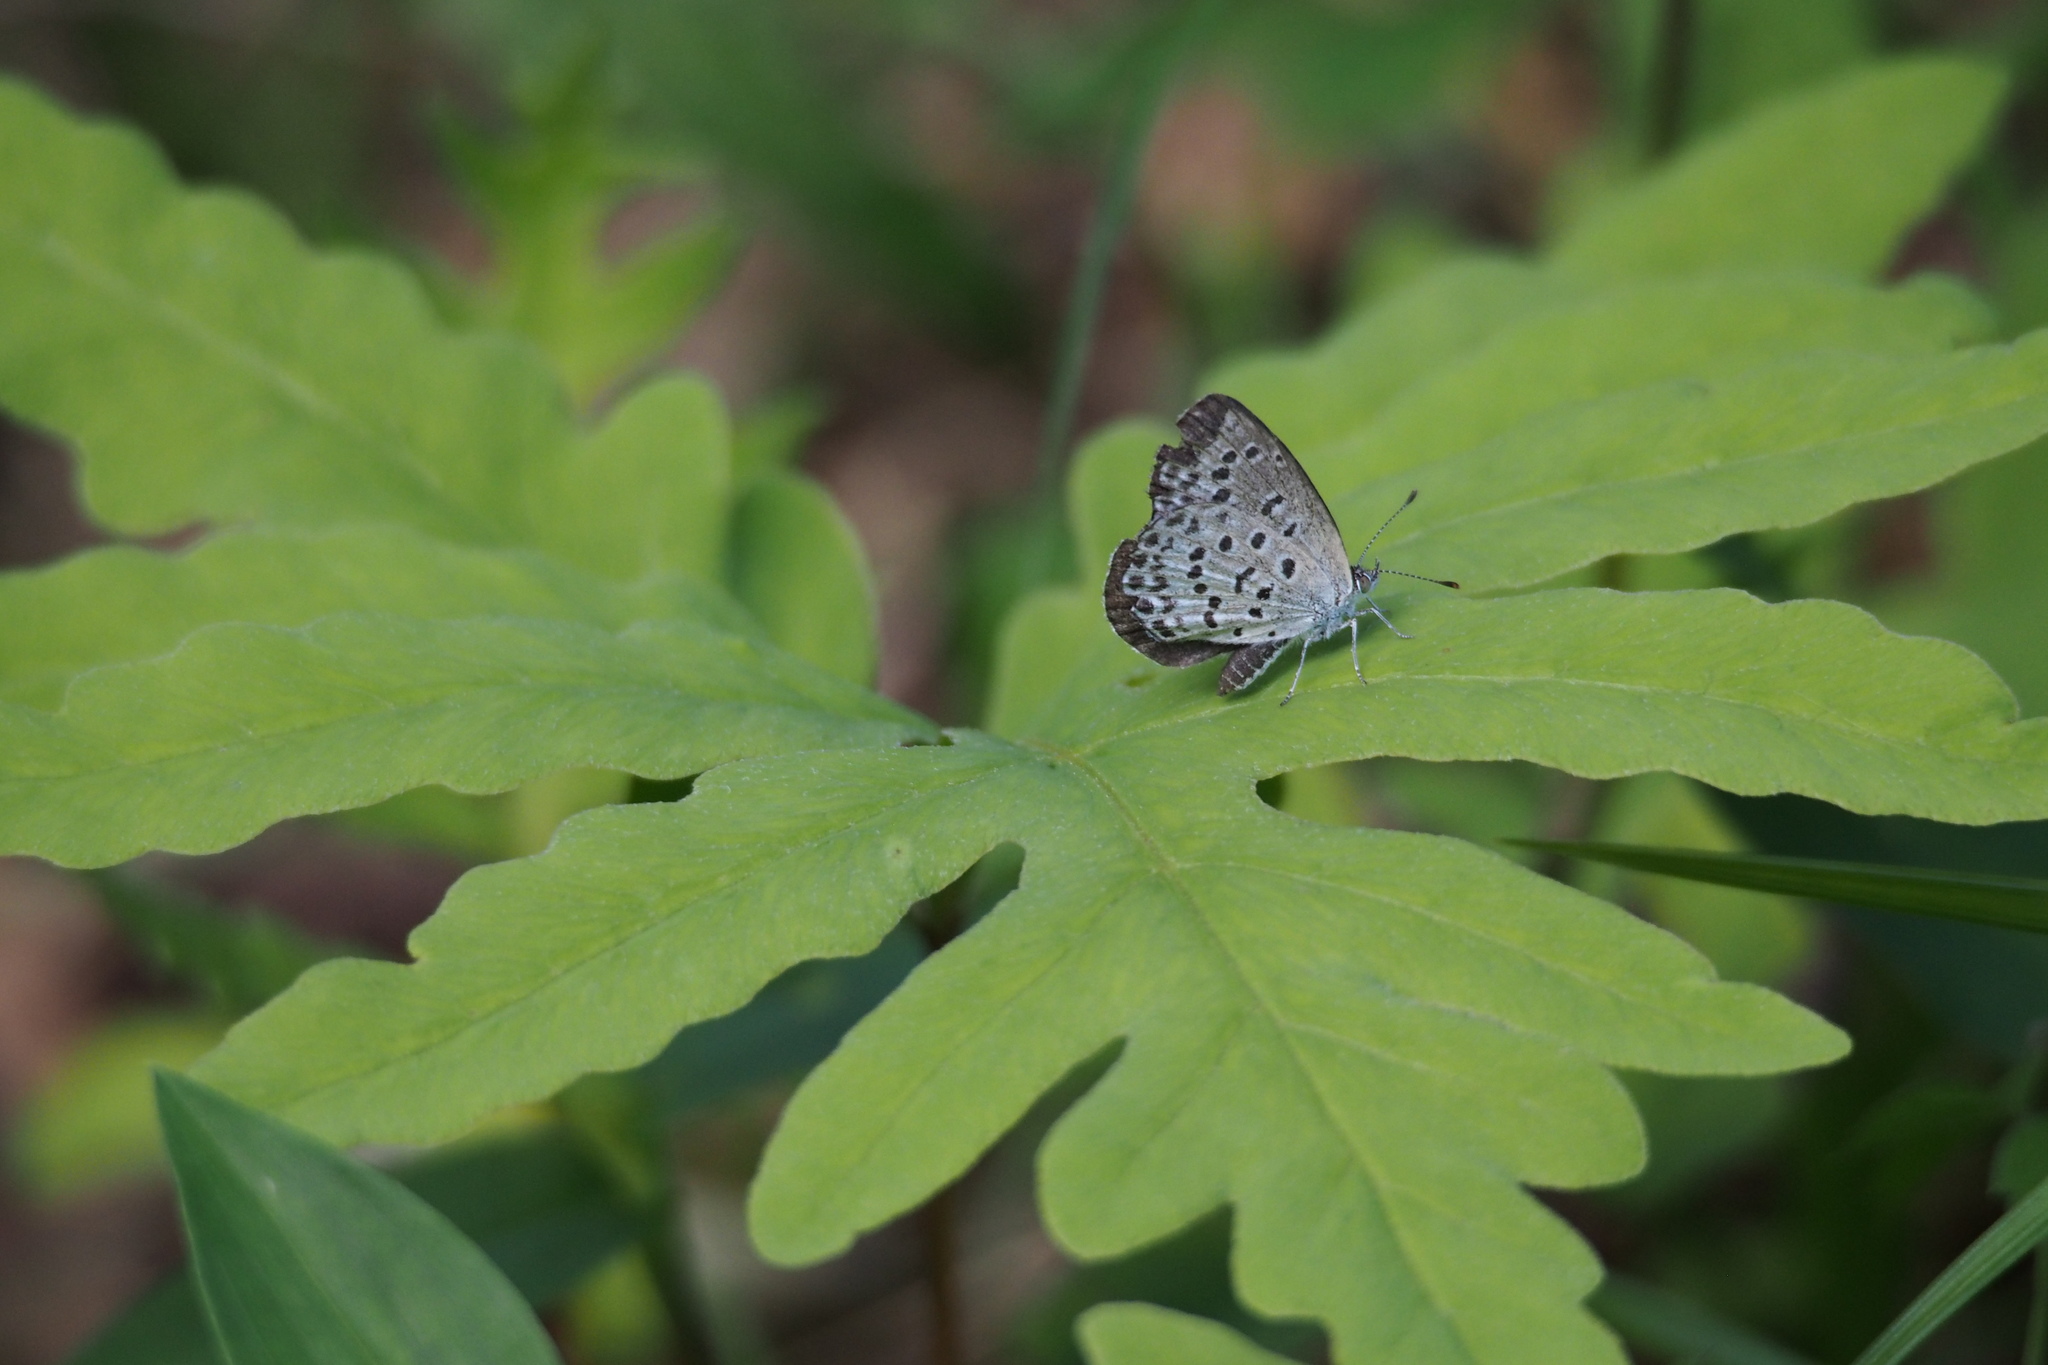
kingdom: Animalia
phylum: Arthropoda
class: Insecta
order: Lepidoptera
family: Lycaenidae
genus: Pseudozizeeria
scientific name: Pseudozizeeria maha
